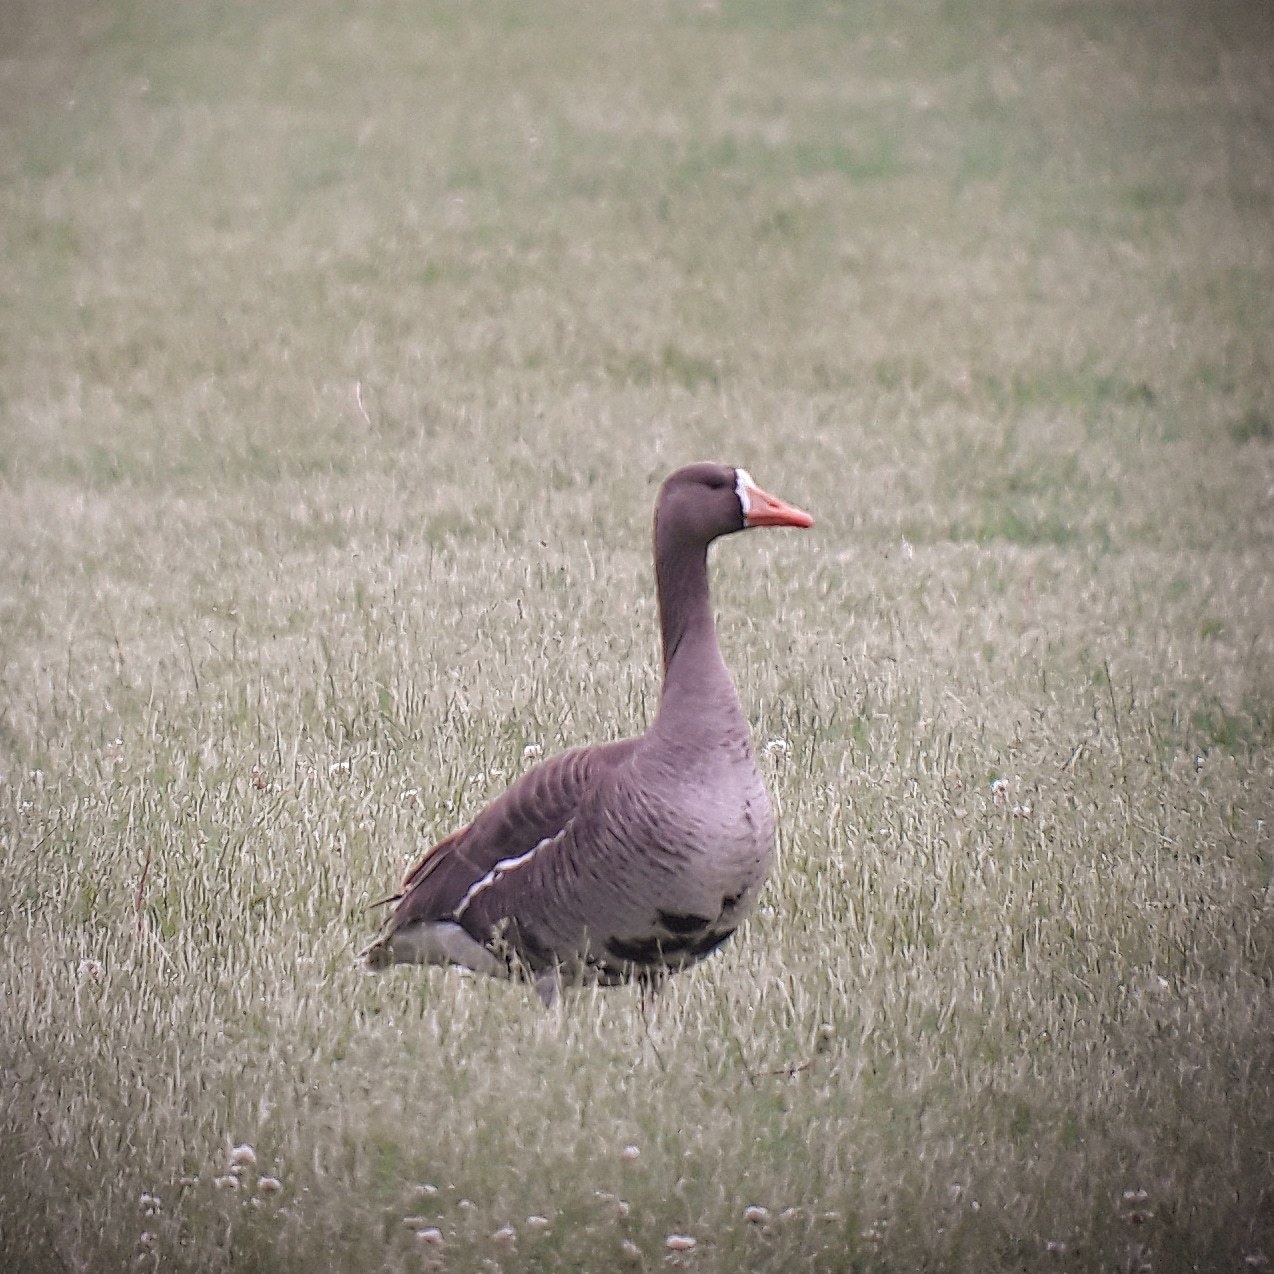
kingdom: Animalia
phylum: Chordata
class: Aves
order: Anseriformes
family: Anatidae
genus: Anser
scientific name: Anser albifrons
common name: Greater white-fronted goose
